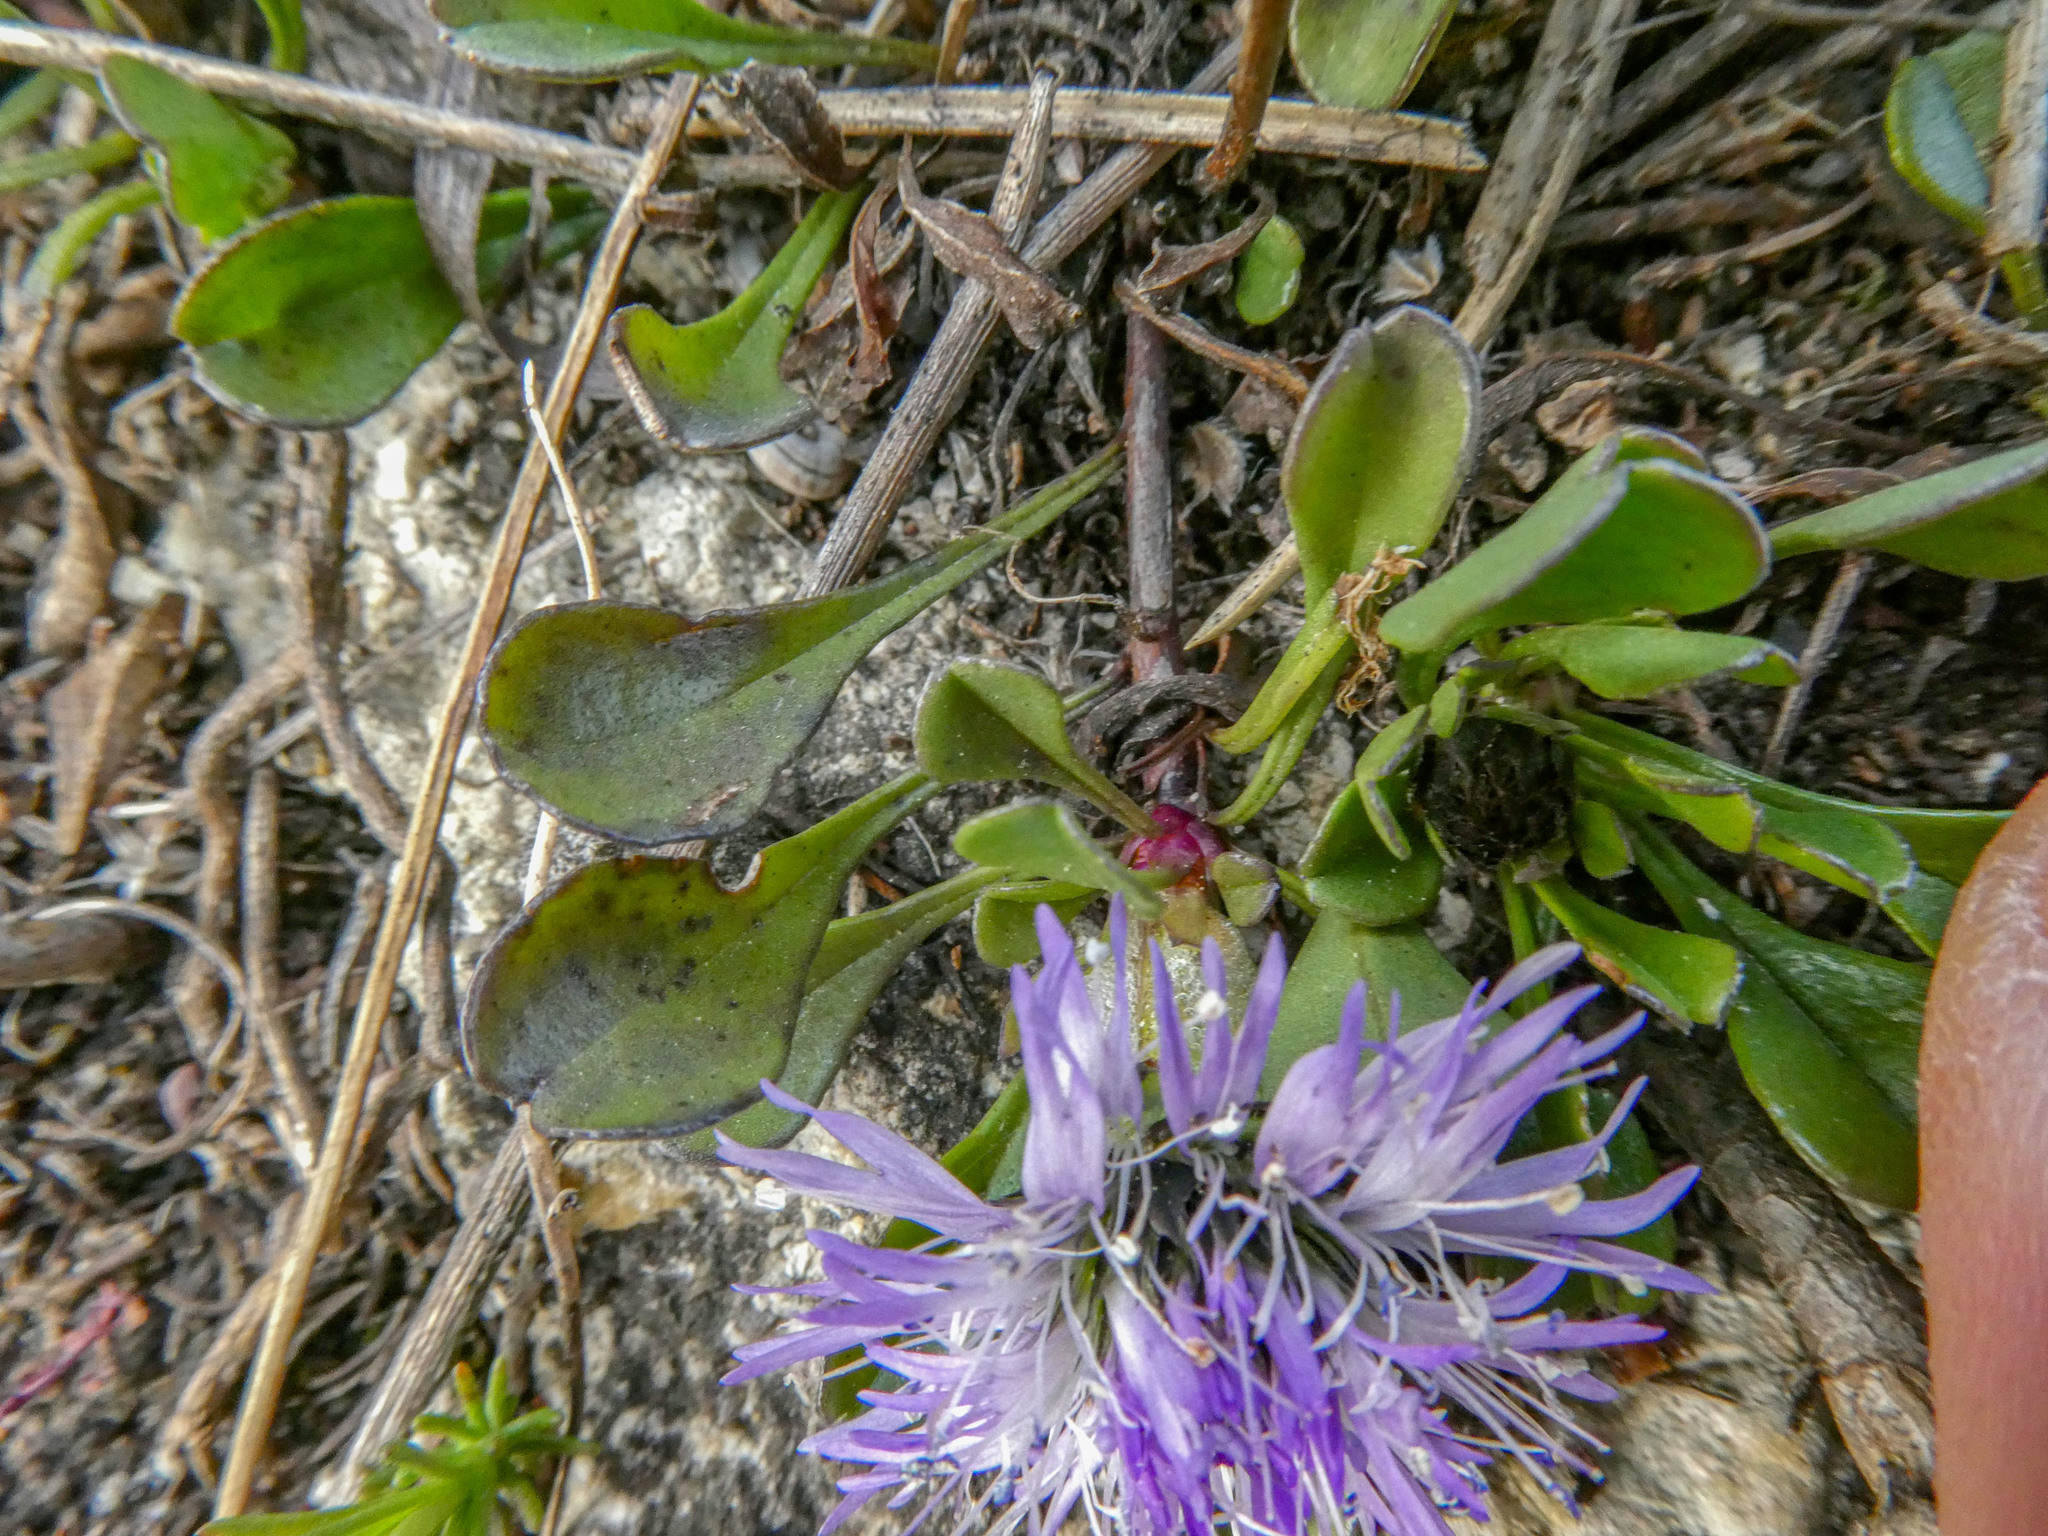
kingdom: Plantae
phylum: Tracheophyta
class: Magnoliopsida
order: Lamiales
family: Plantaginaceae
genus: Globularia
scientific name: Globularia cordifolia
